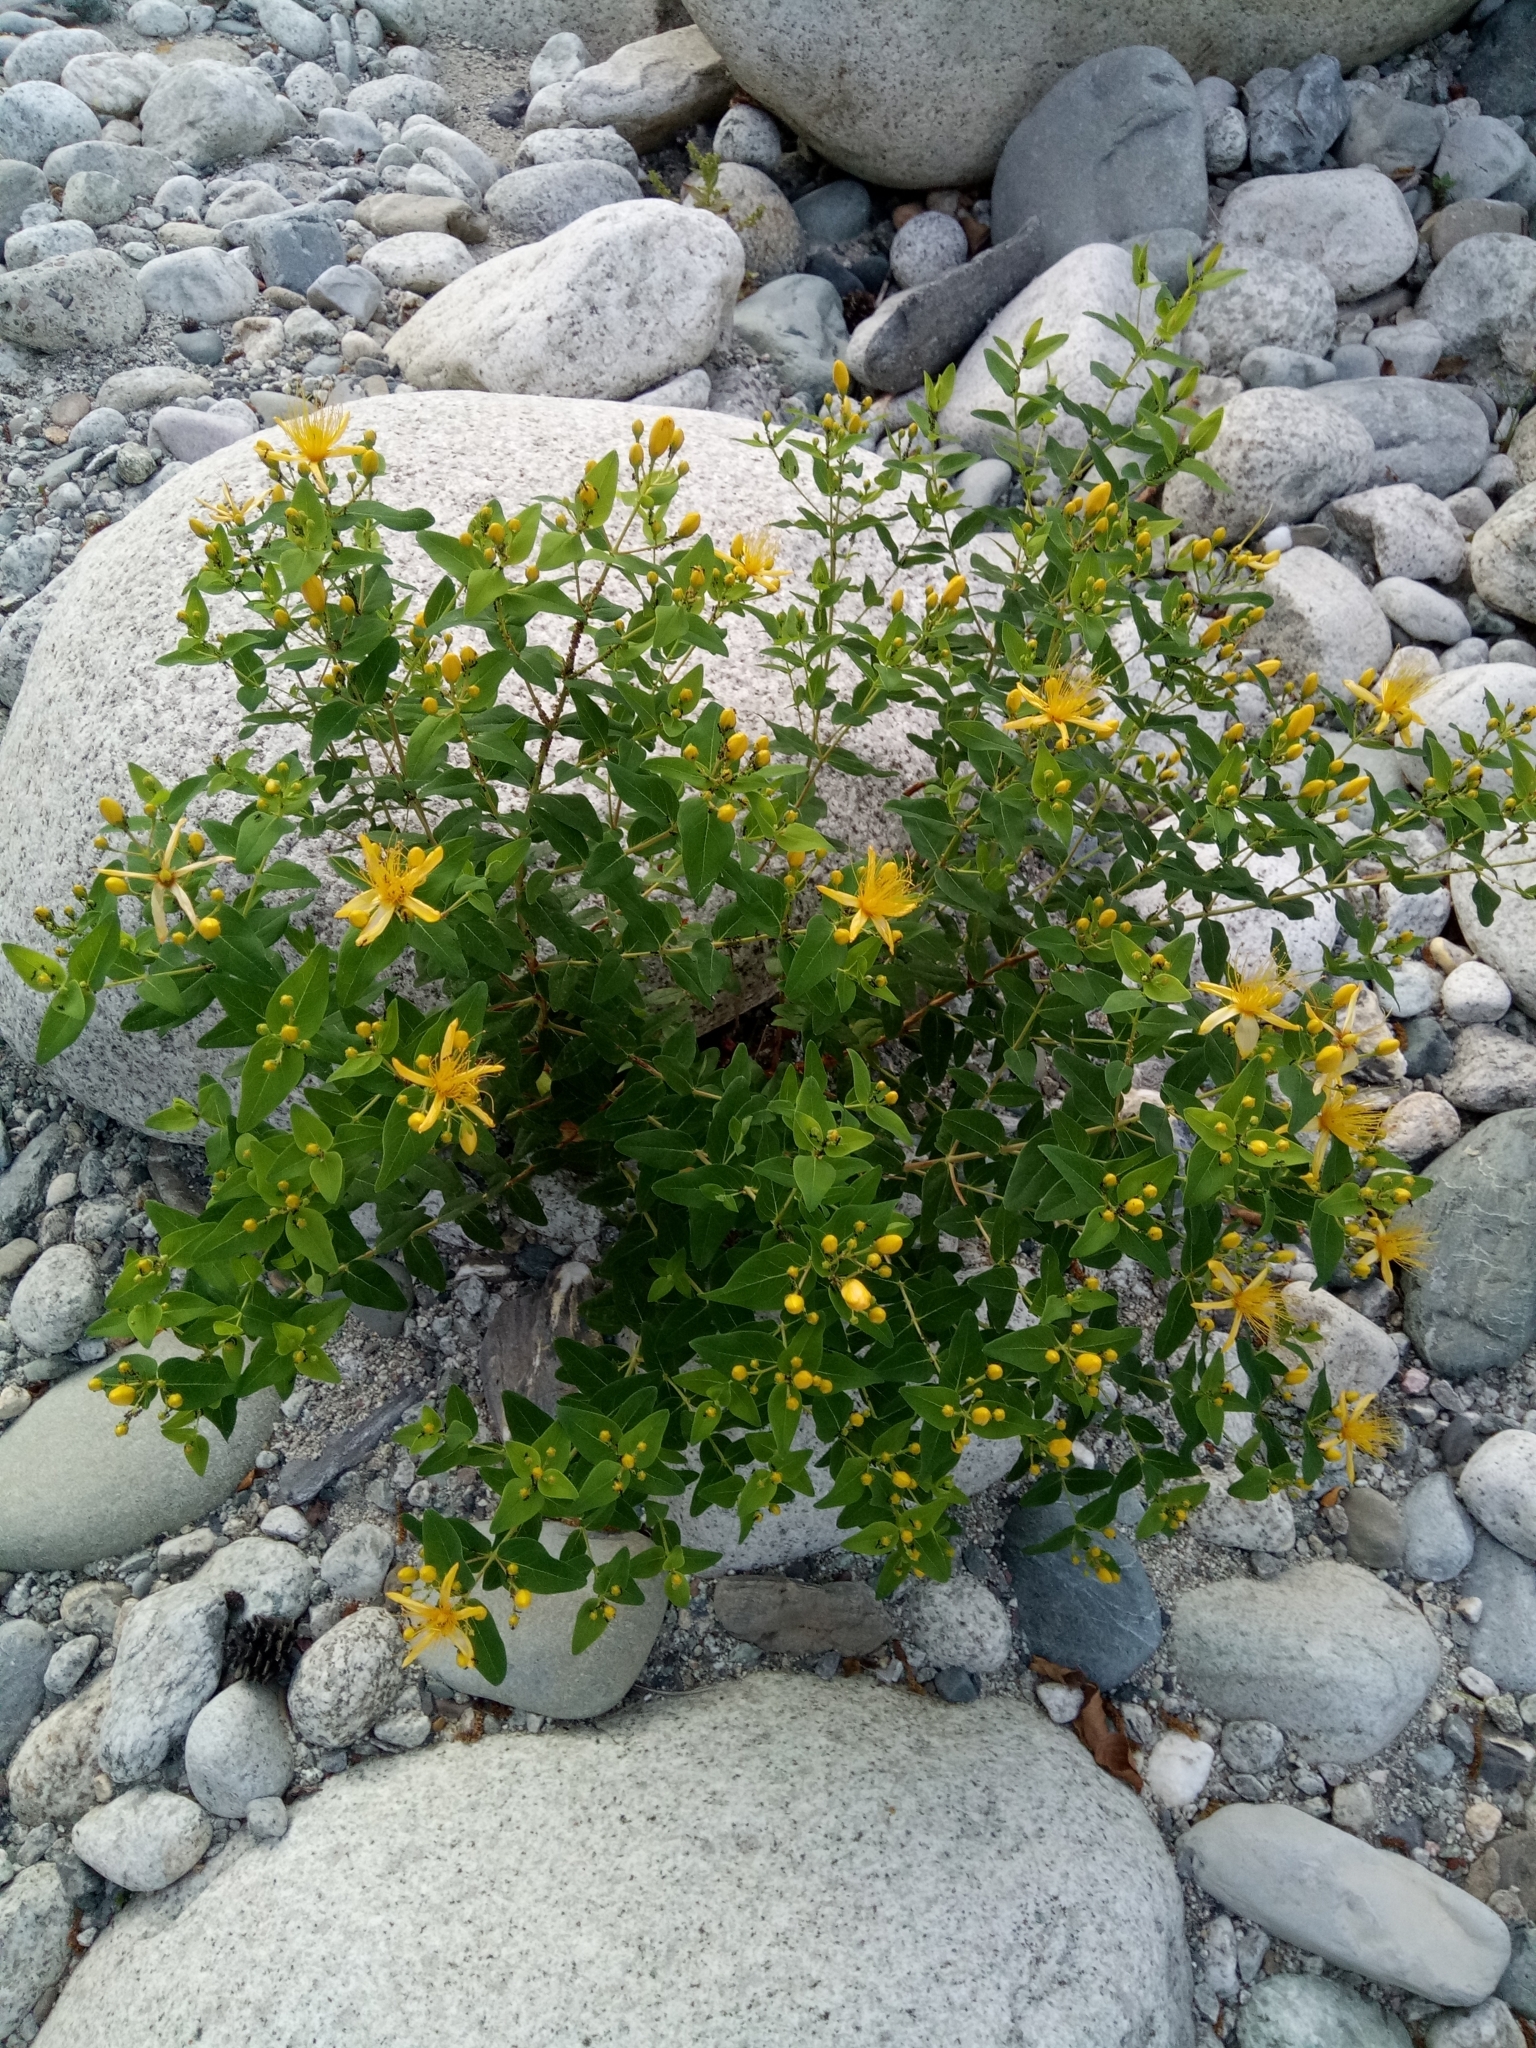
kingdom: Plantae
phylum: Tracheophyta
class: Magnoliopsida
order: Malpighiales
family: Hypericaceae
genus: Hypericum
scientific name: Hypericum hircinum
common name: Stinking tutsan
